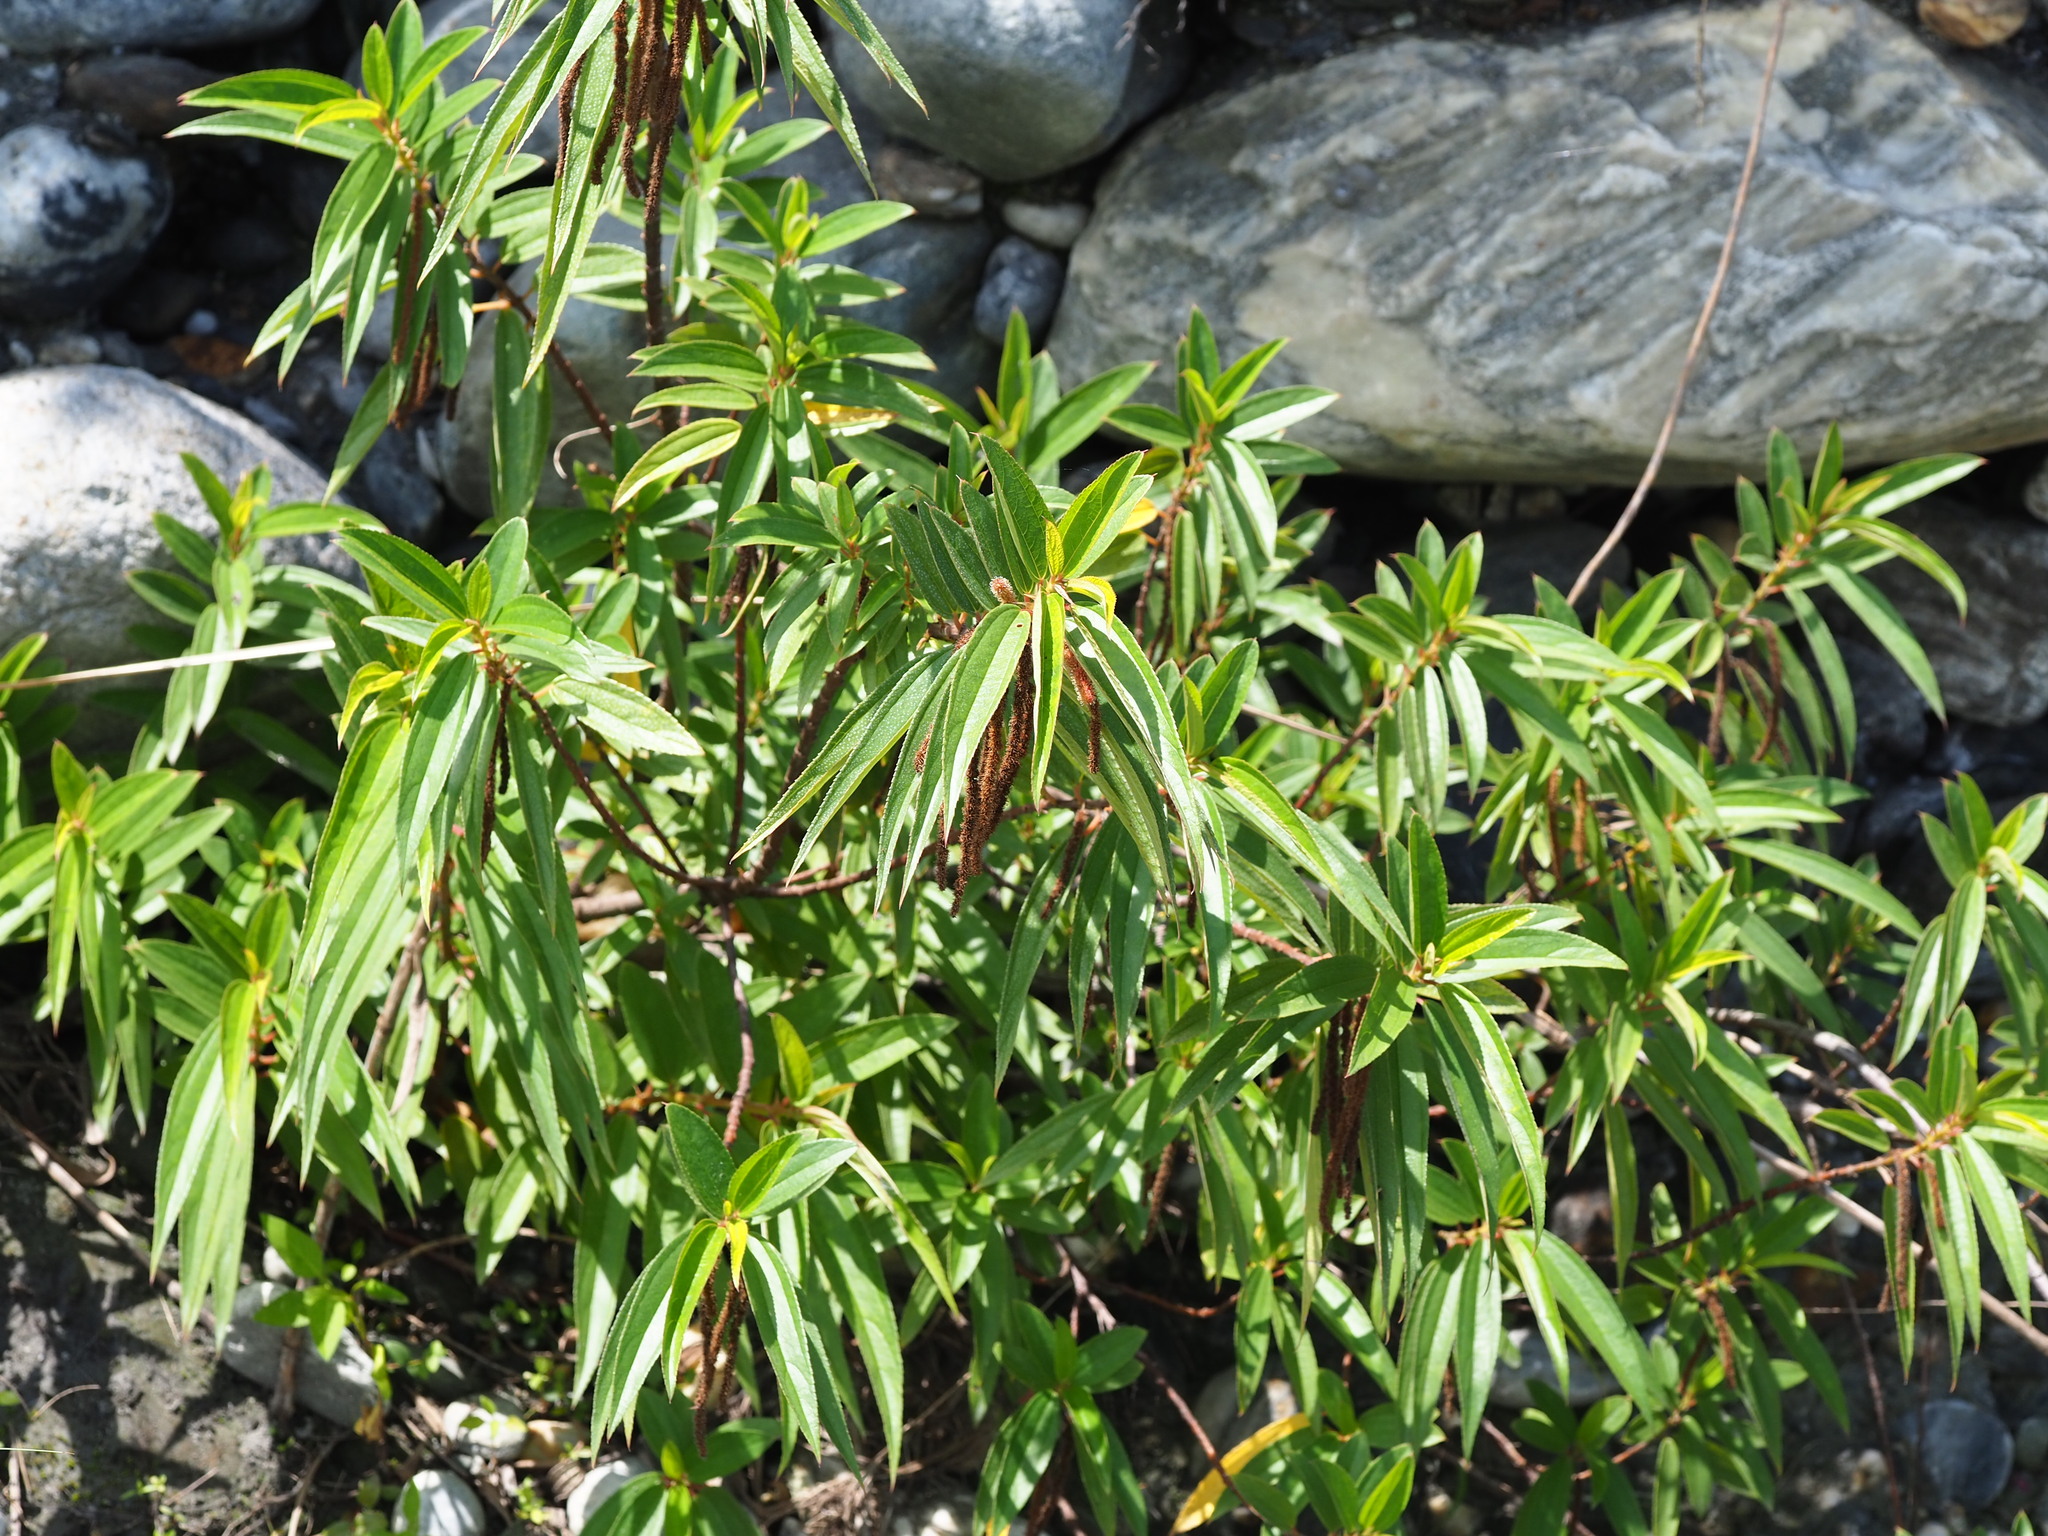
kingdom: Plantae
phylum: Tracheophyta
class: Magnoliopsida
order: Rosales
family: Urticaceae
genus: Boehmeria
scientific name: Boehmeria densiflora
